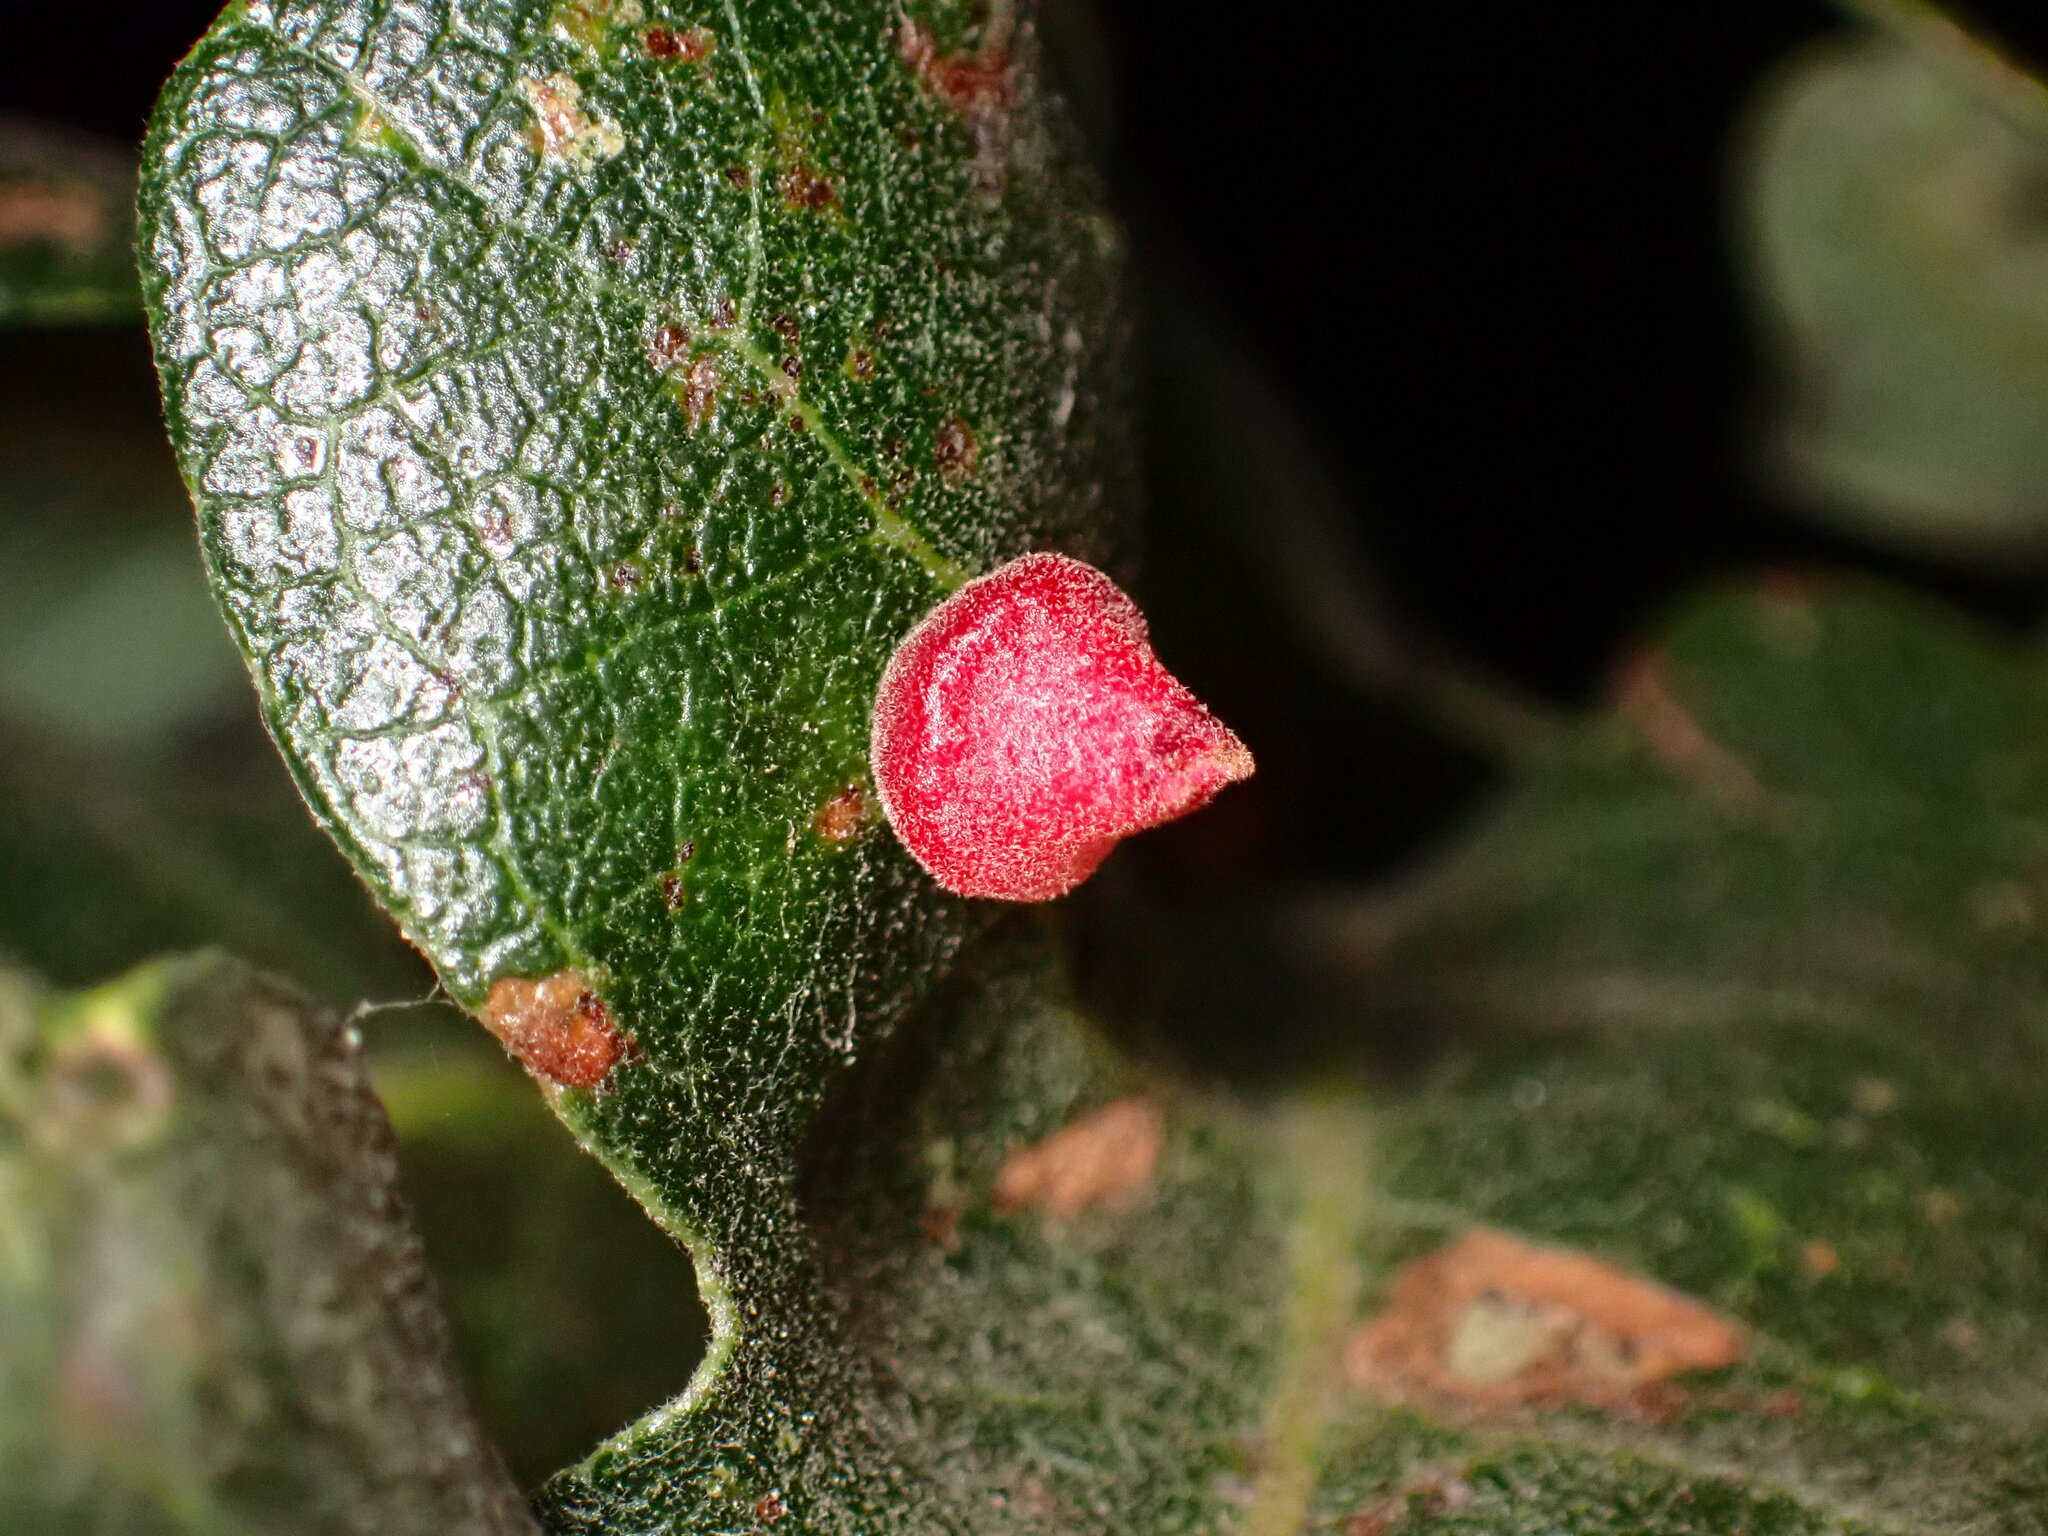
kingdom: Animalia
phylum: Arthropoda
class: Insecta
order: Hymenoptera
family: Cynipidae
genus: Andricus
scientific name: Andricus
